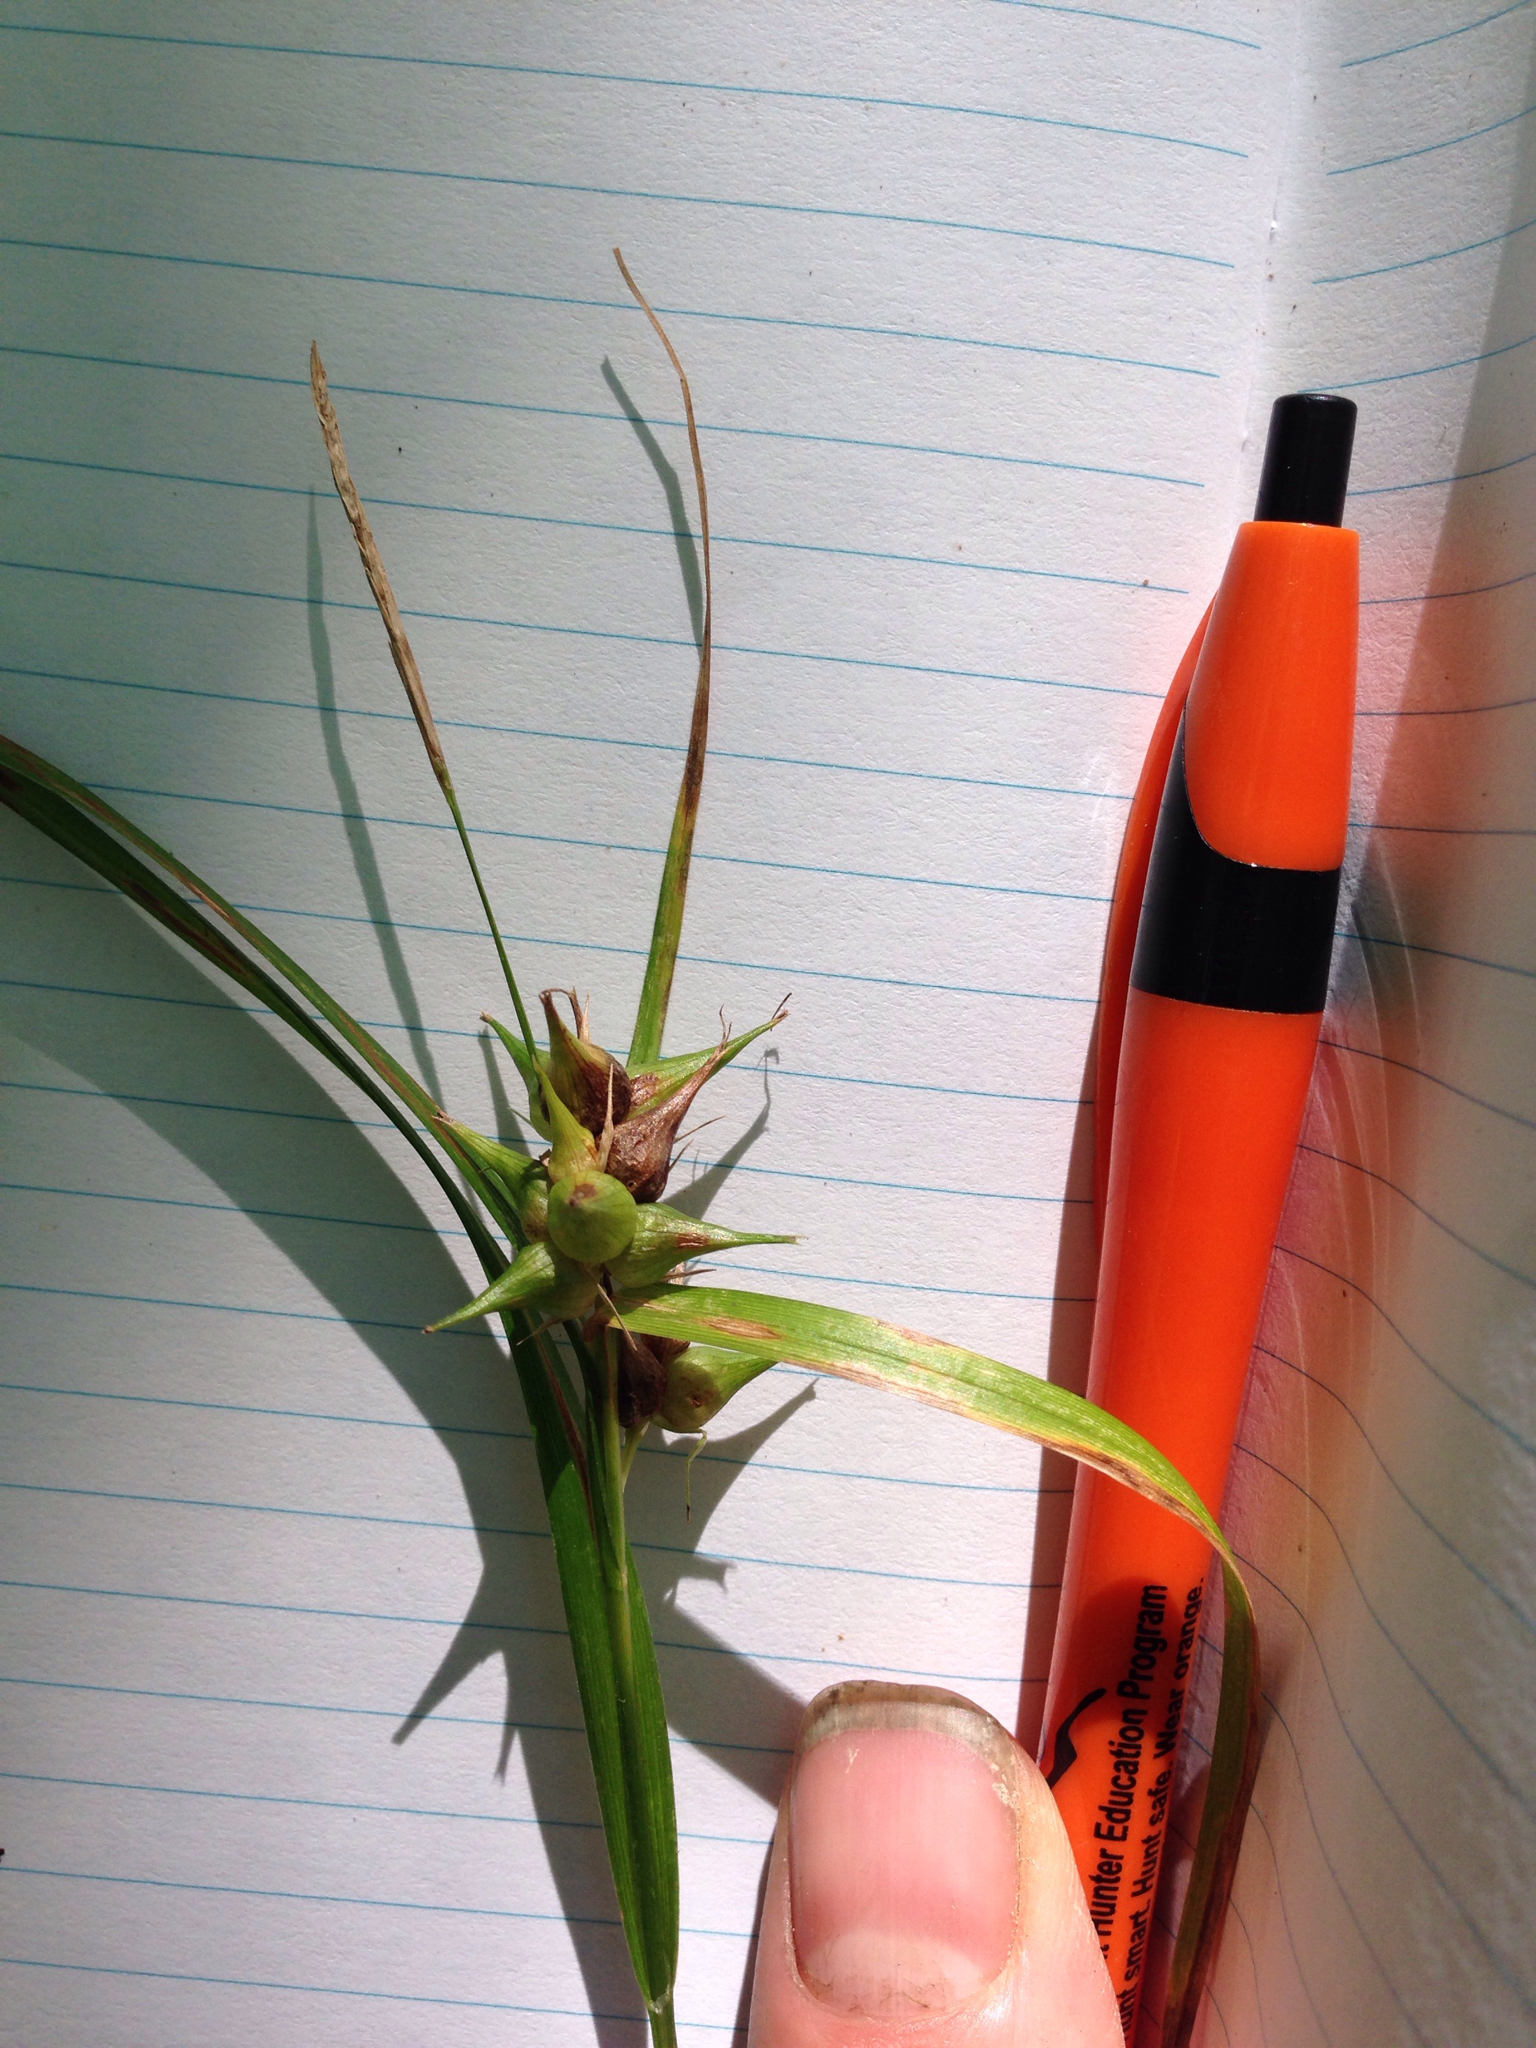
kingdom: Plantae
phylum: Tracheophyta
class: Liliopsida
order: Poales
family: Cyperaceae
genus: Carex
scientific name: Carex intumescens
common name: Greater bladder sedge
